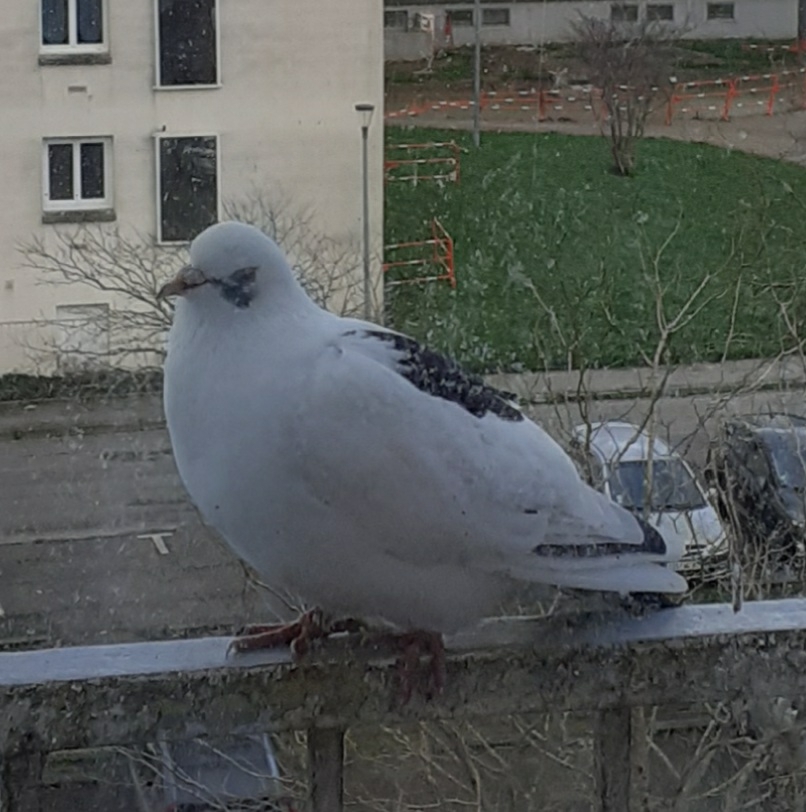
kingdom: Animalia
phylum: Chordata
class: Aves
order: Columbiformes
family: Columbidae
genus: Columba
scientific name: Columba livia
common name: Rock pigeon
